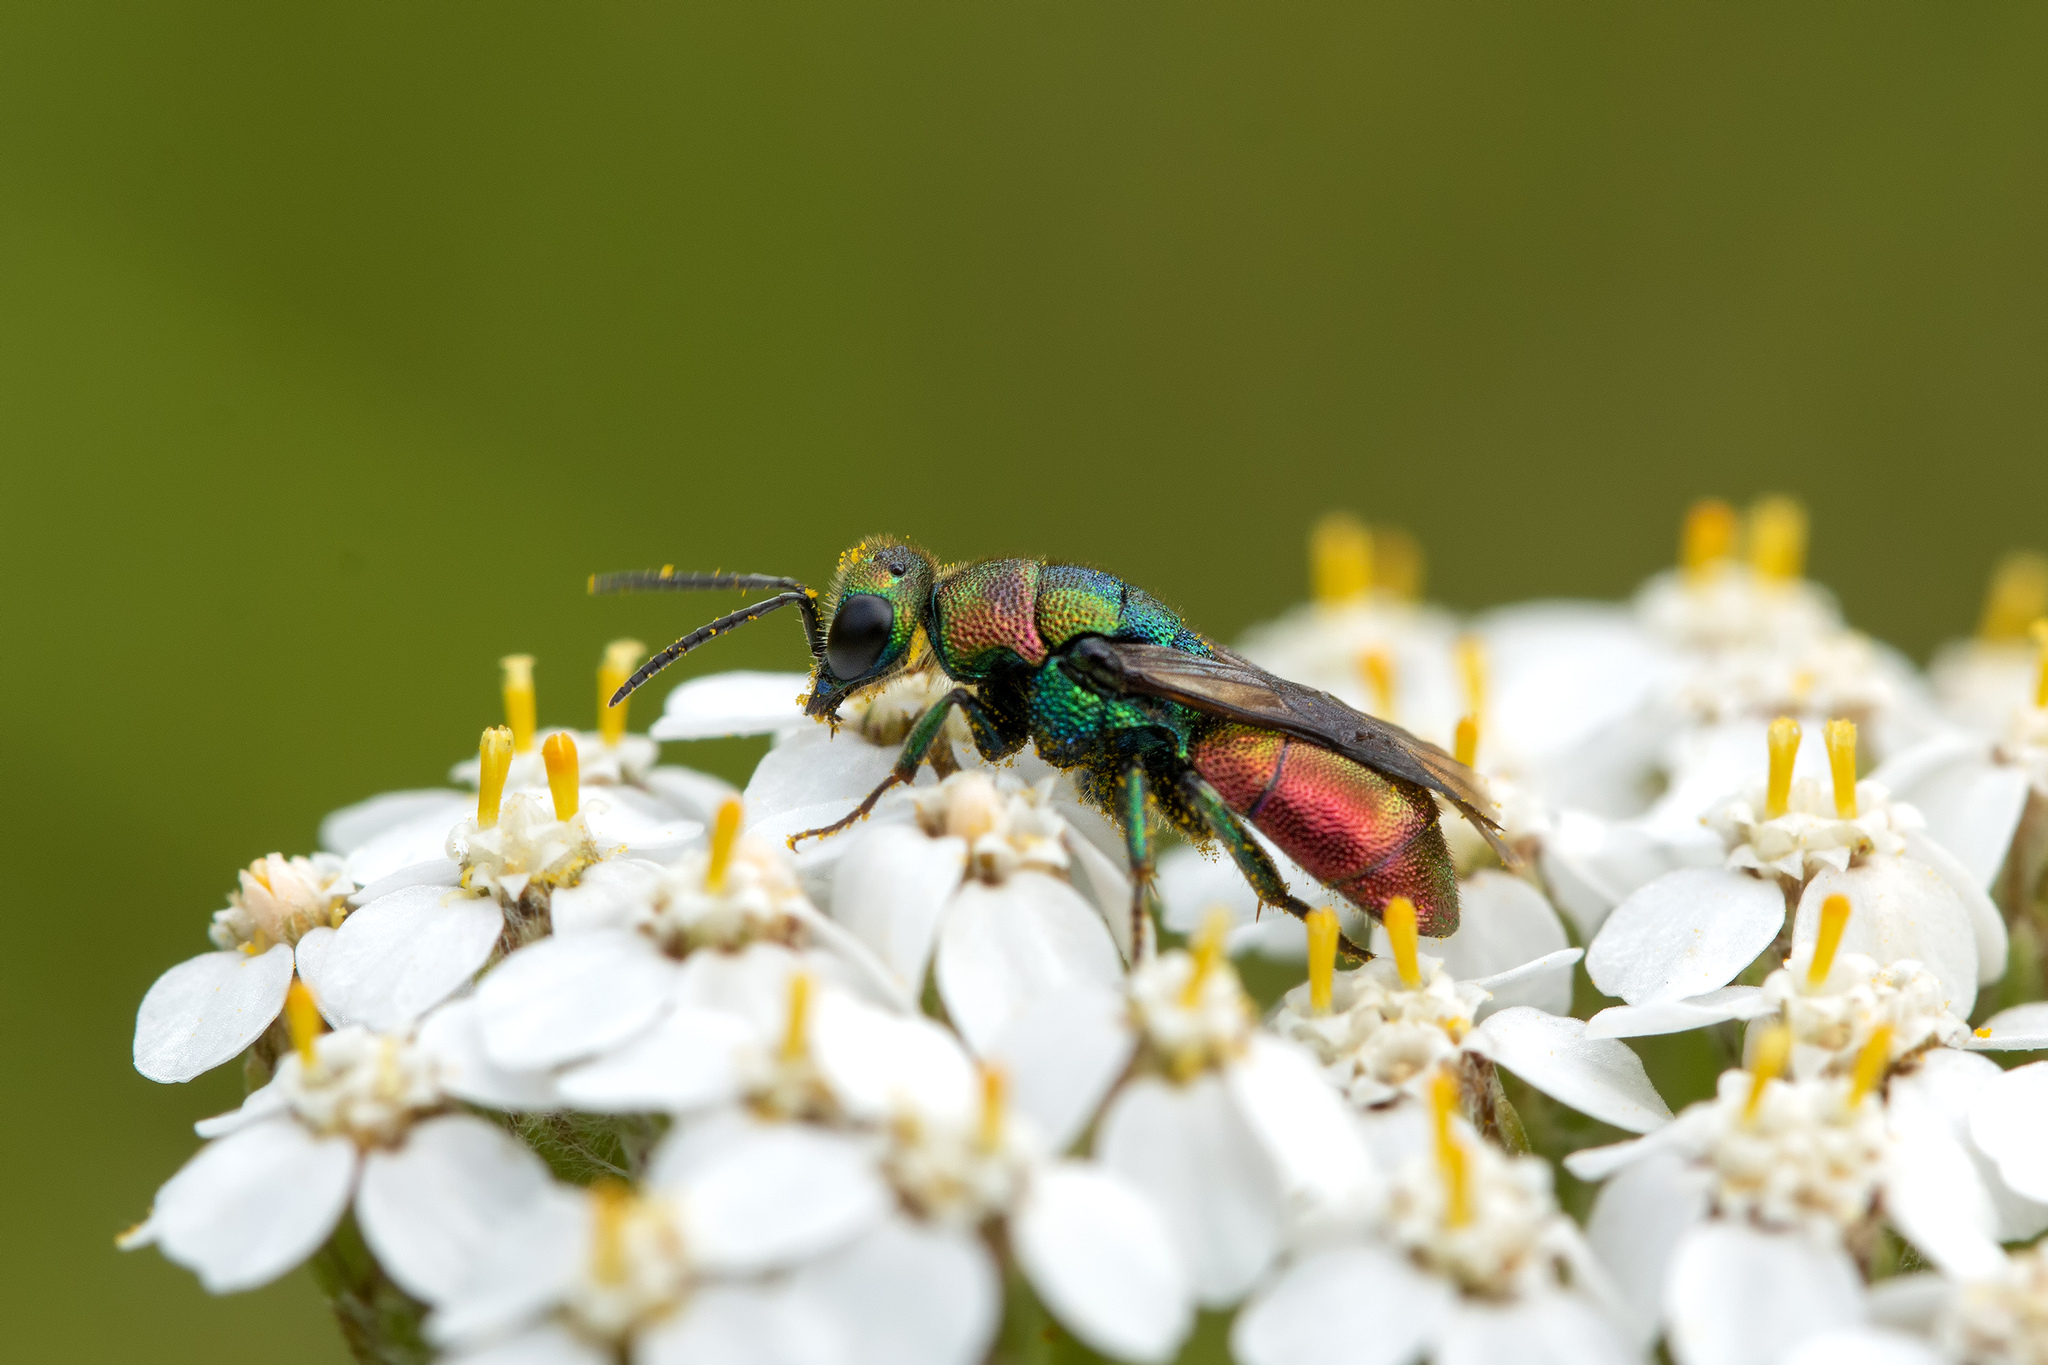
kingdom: Animalia
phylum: Arthropoda
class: Insecta
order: Hymenoptera
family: Chrysididae
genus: Hedychrum
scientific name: Hedychrum rutilans
